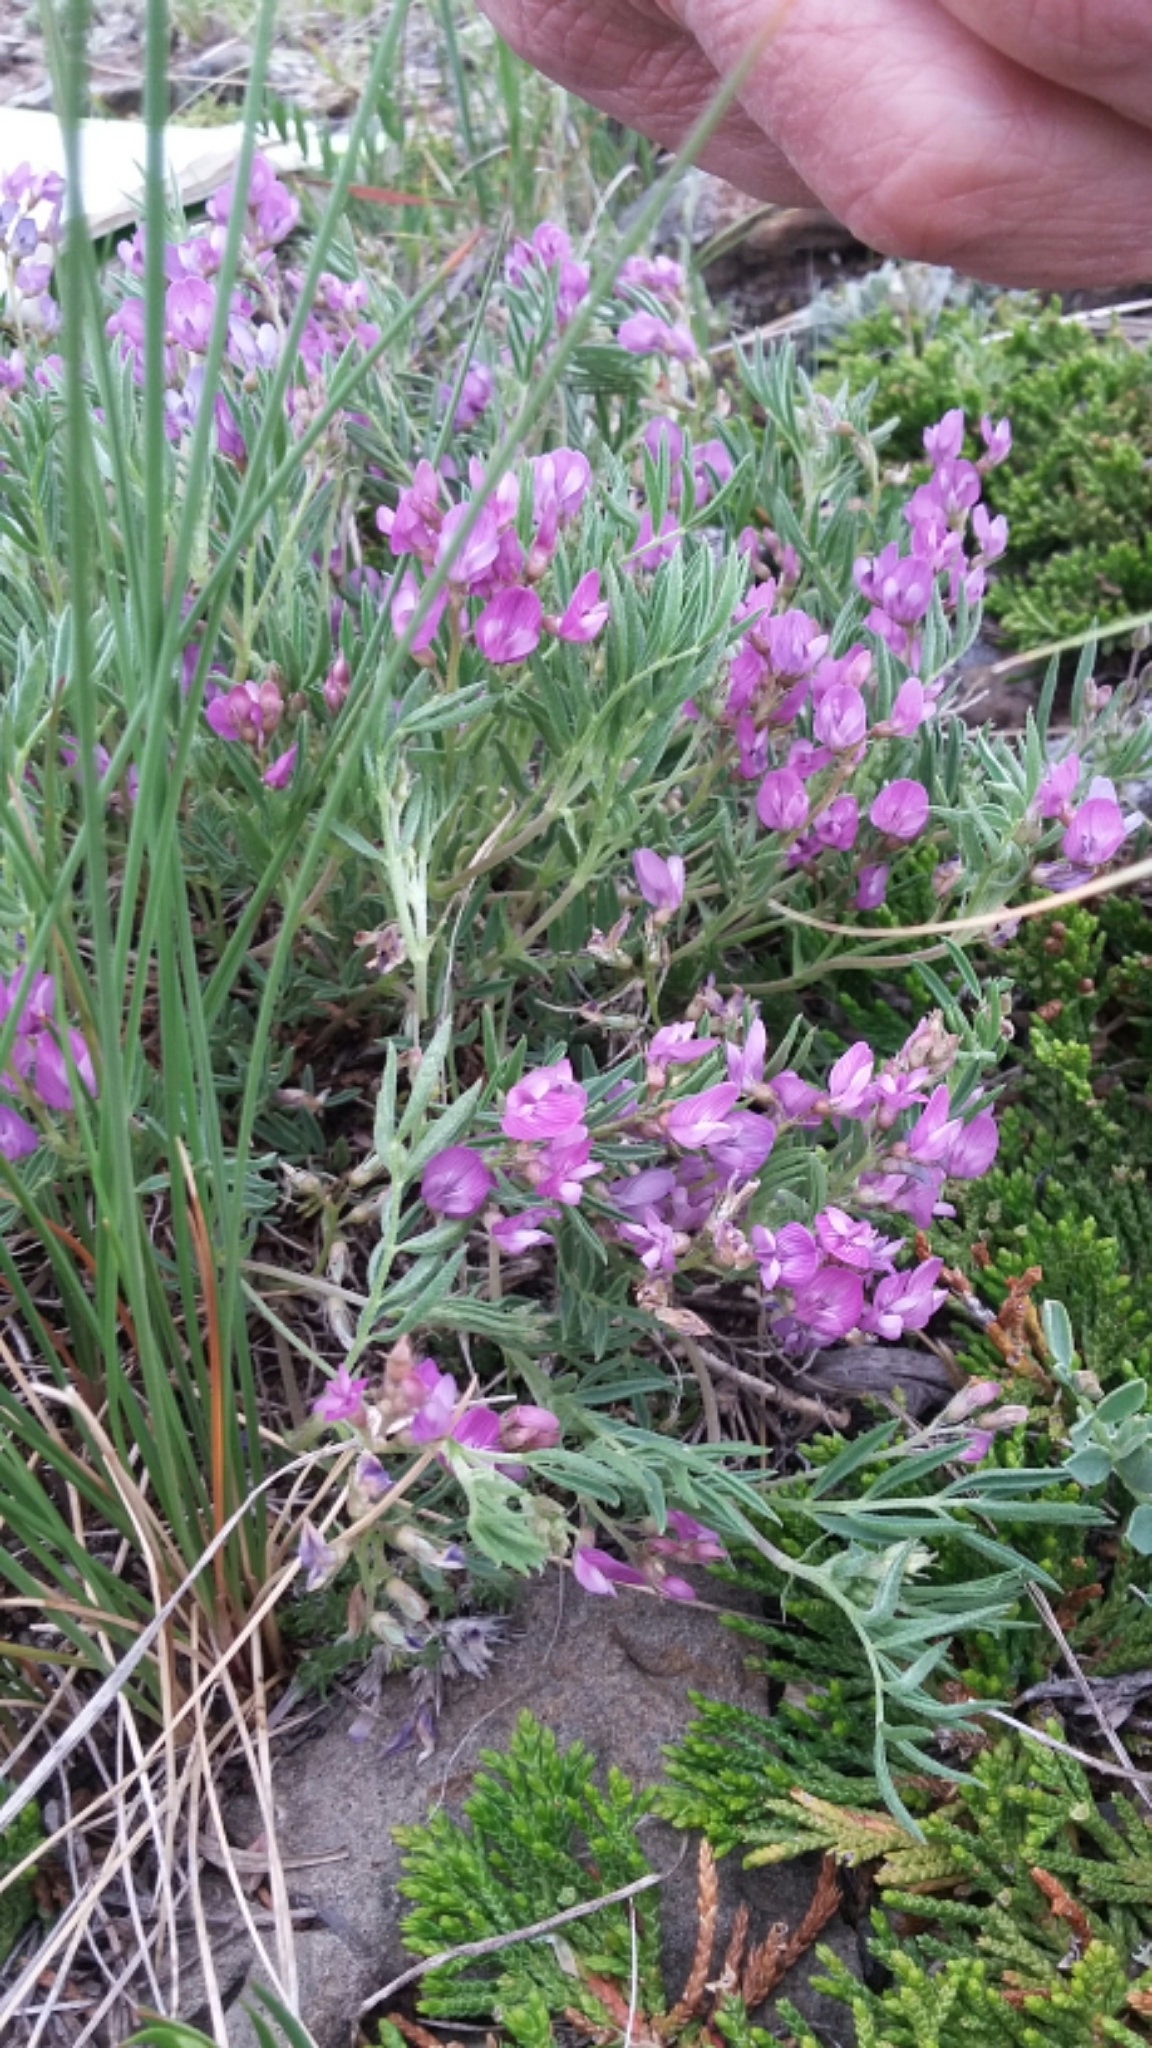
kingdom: Plantae
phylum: Tracheophyta
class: Magnoliopsida
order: Fabales
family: Fabaceae
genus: Astragalus
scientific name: Astragalus vexilliflexus
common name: Bent-flowered milk-vetch
